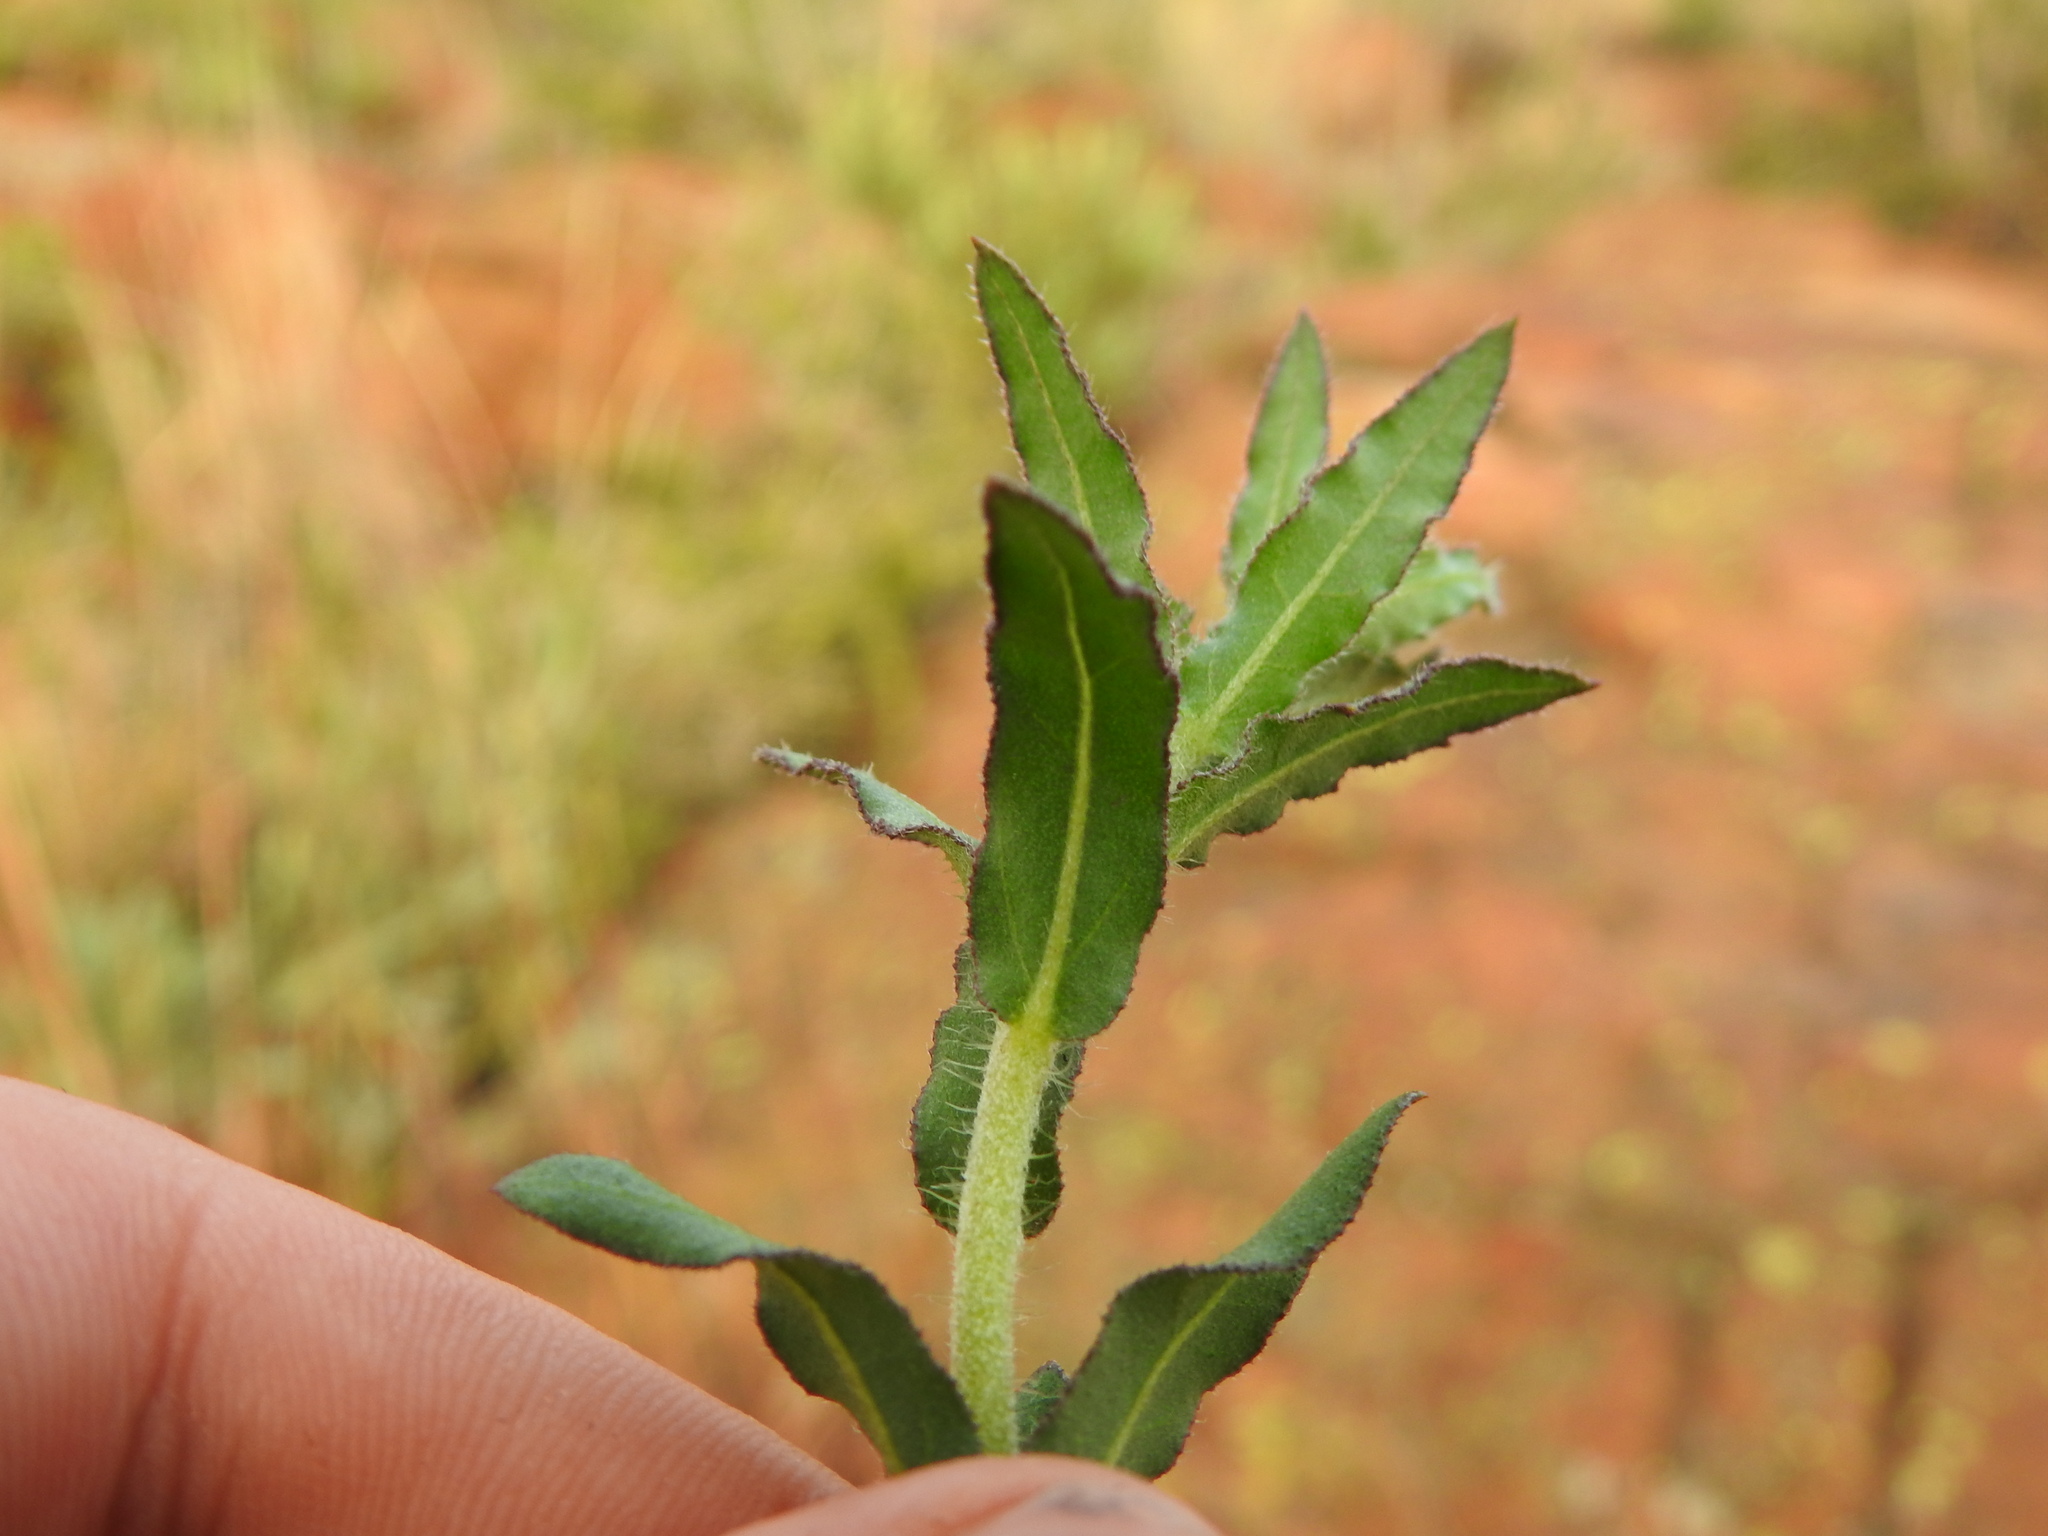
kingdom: Plantae
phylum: Tracheophyta
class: Magnoliopsida
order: Asterales
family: Asteraceae
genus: Pseudopegolettia
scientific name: Pseudopegolettia tenella
